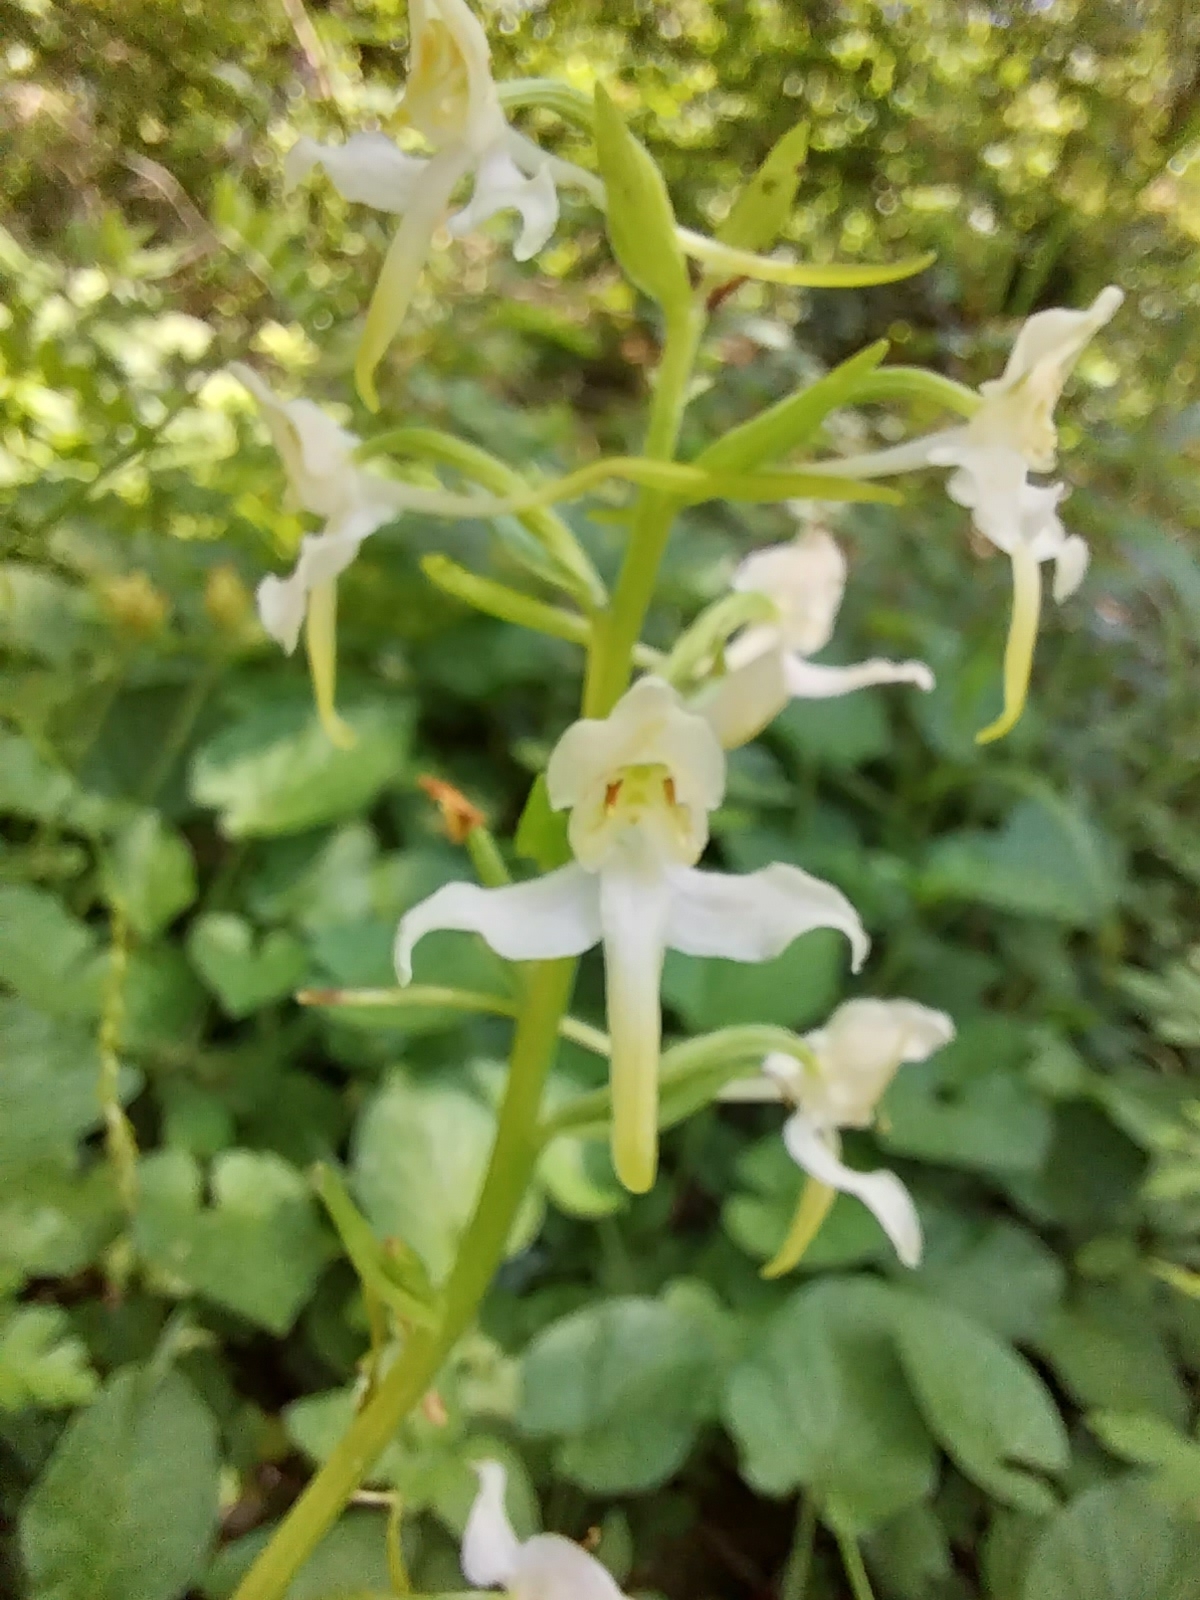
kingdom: Plantae
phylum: Tracheophyta
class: Liliopsida
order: Asparagales
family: Orchidaceae
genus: Platanthera
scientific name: Platanthera chlorantha
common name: Greater butterfly-orchid
